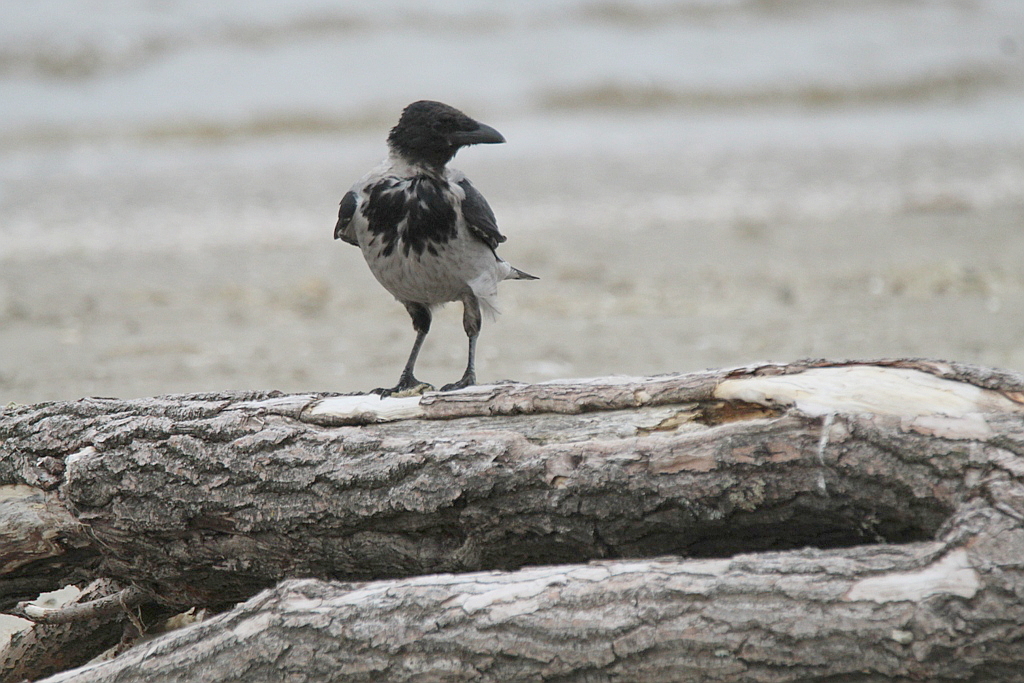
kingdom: Animalia
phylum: Chordata
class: Aves
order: Passeriformes
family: Corvidae
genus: Corvus
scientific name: Corvus cornix
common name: Hooded crow
